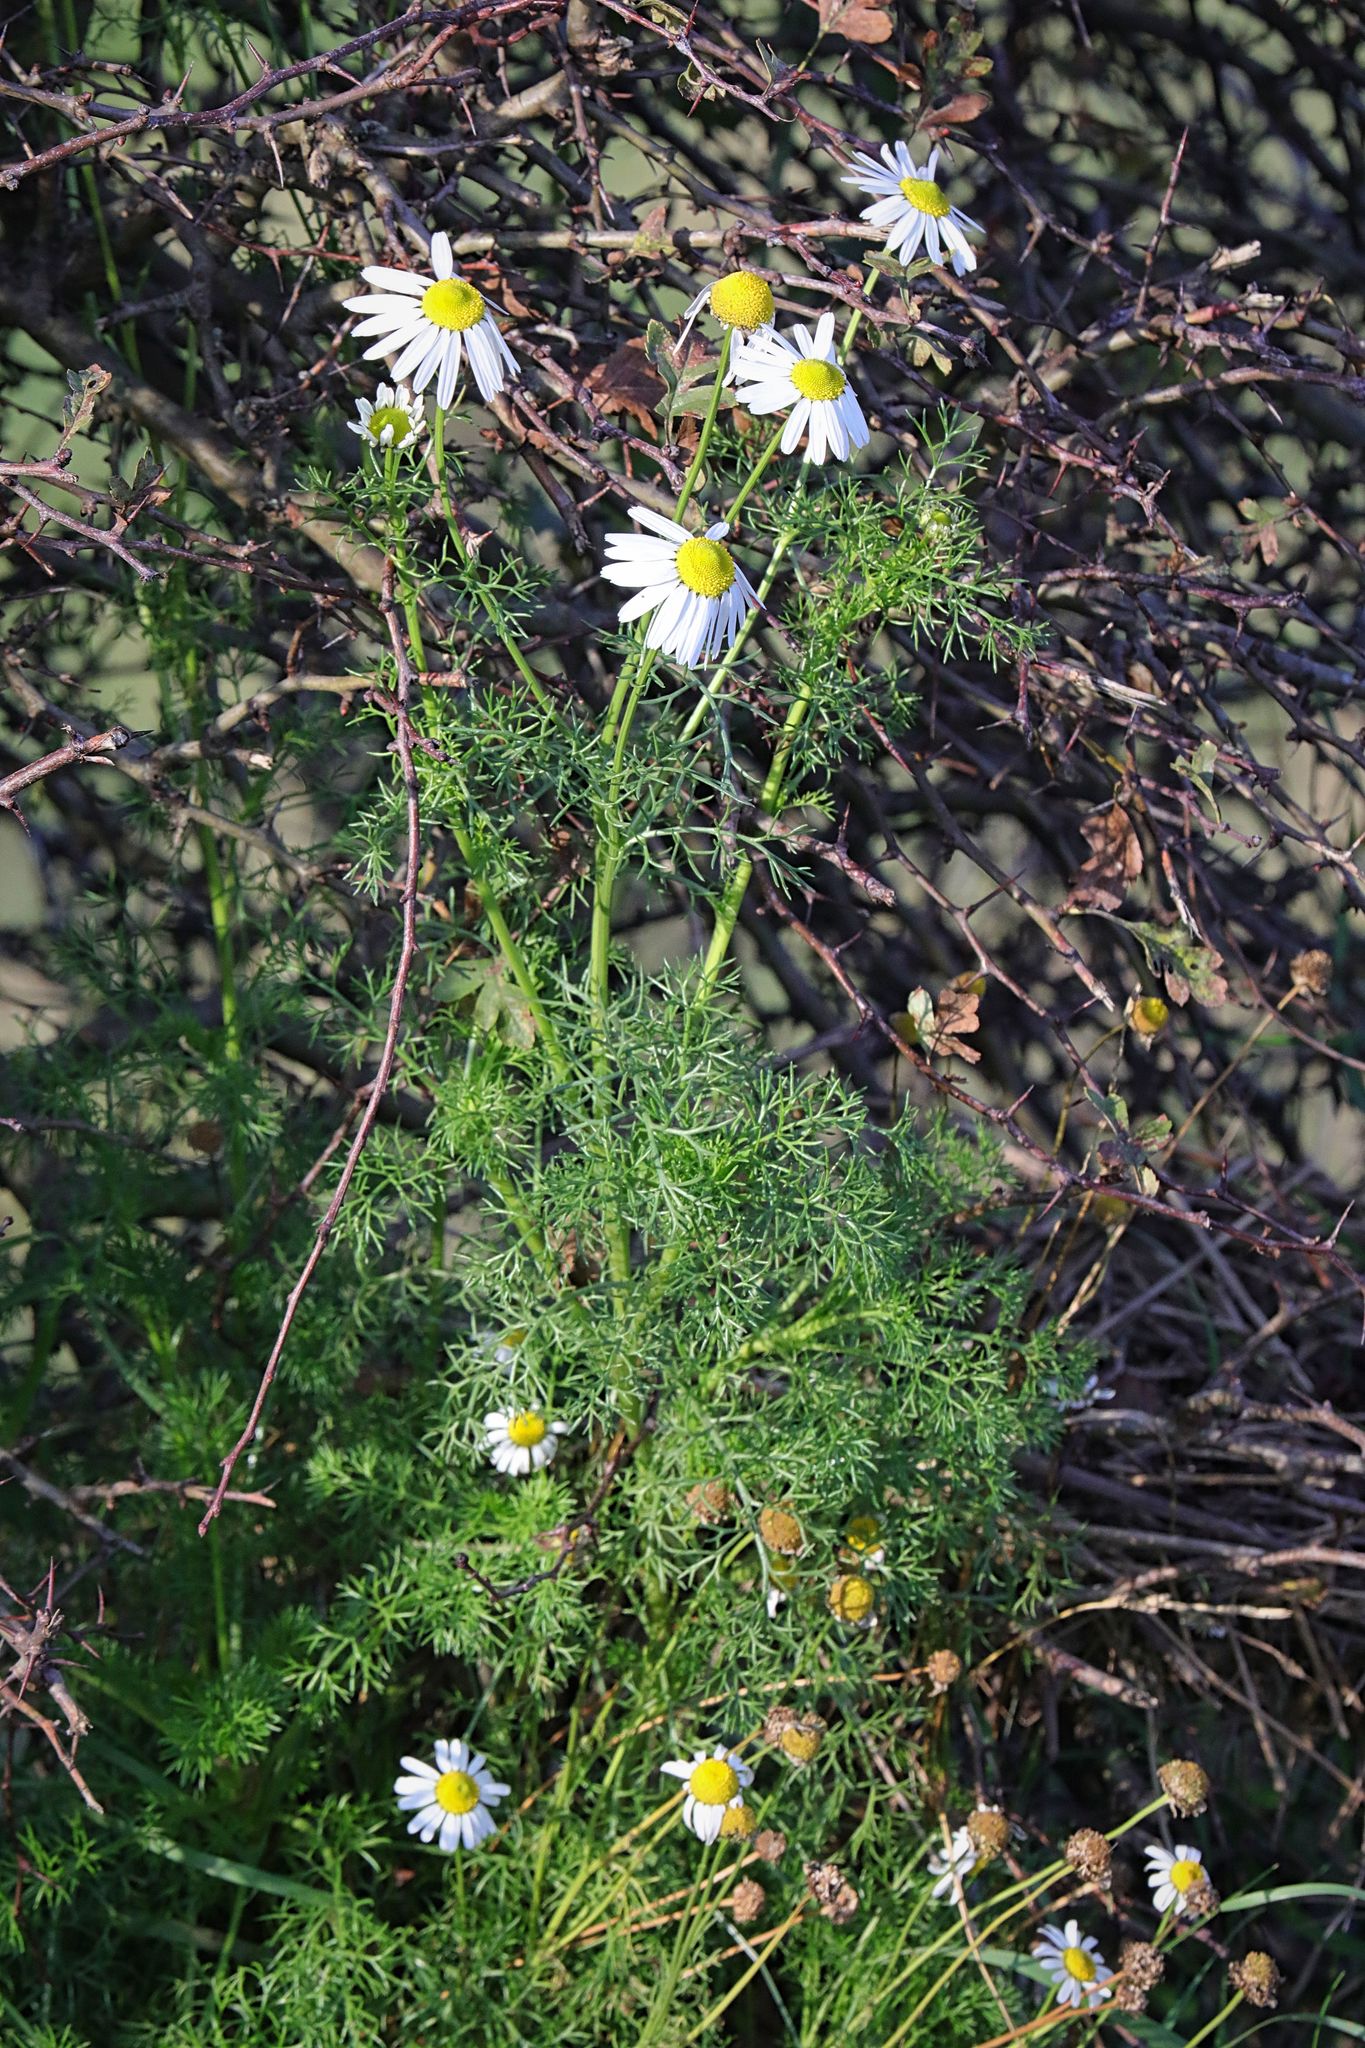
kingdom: Plantae
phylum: Tracheophyta
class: Magnoliopsida
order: Asterales
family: Asteraceae
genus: Tripleurospermum
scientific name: Tripleurospermum inodorum
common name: Scentless mayweed
